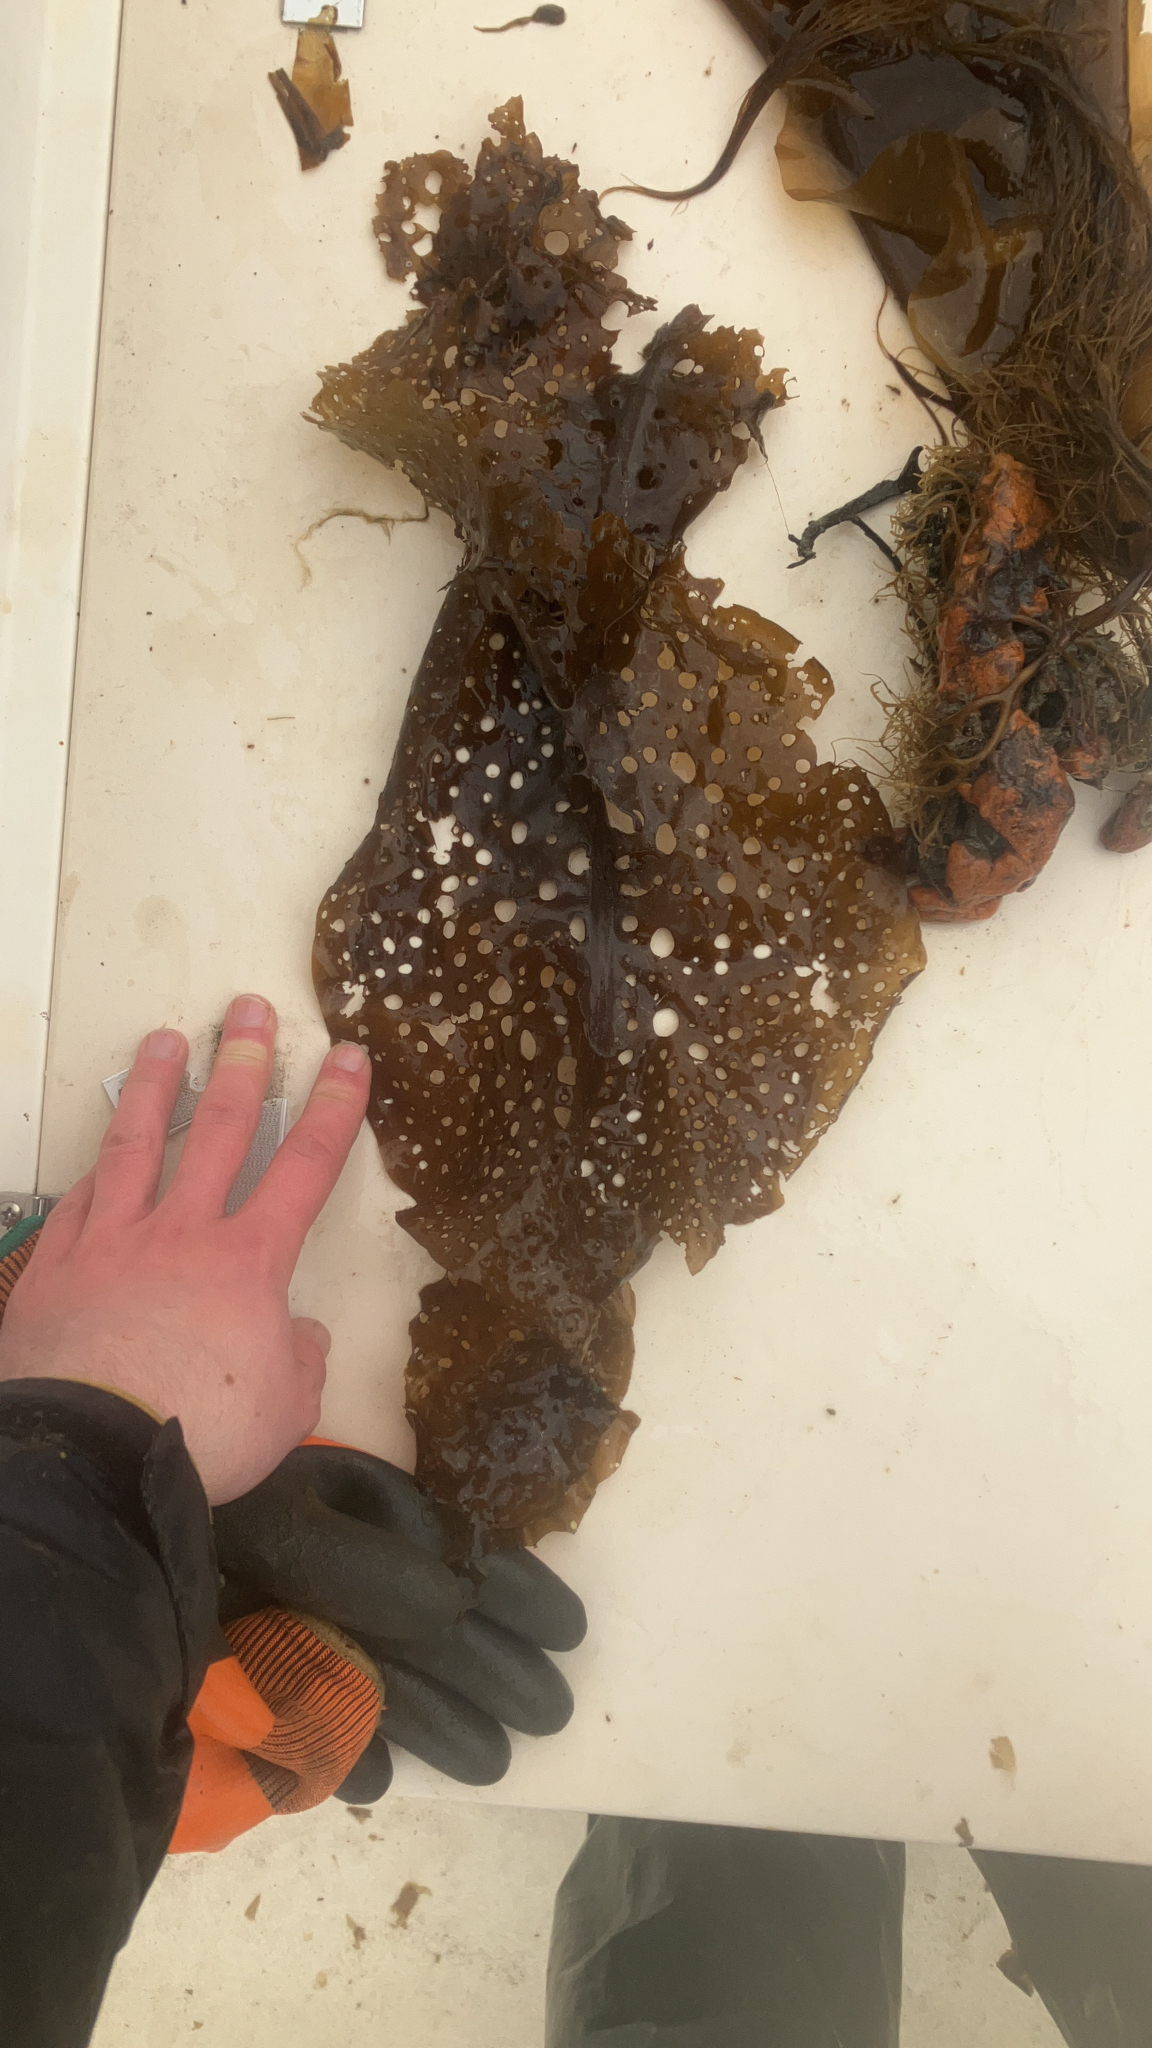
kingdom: Chromista
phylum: Ochrophyta
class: Phaeophyceae
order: Laminariales
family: Costariaceae
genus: Agarum
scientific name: Agarum clathratum
